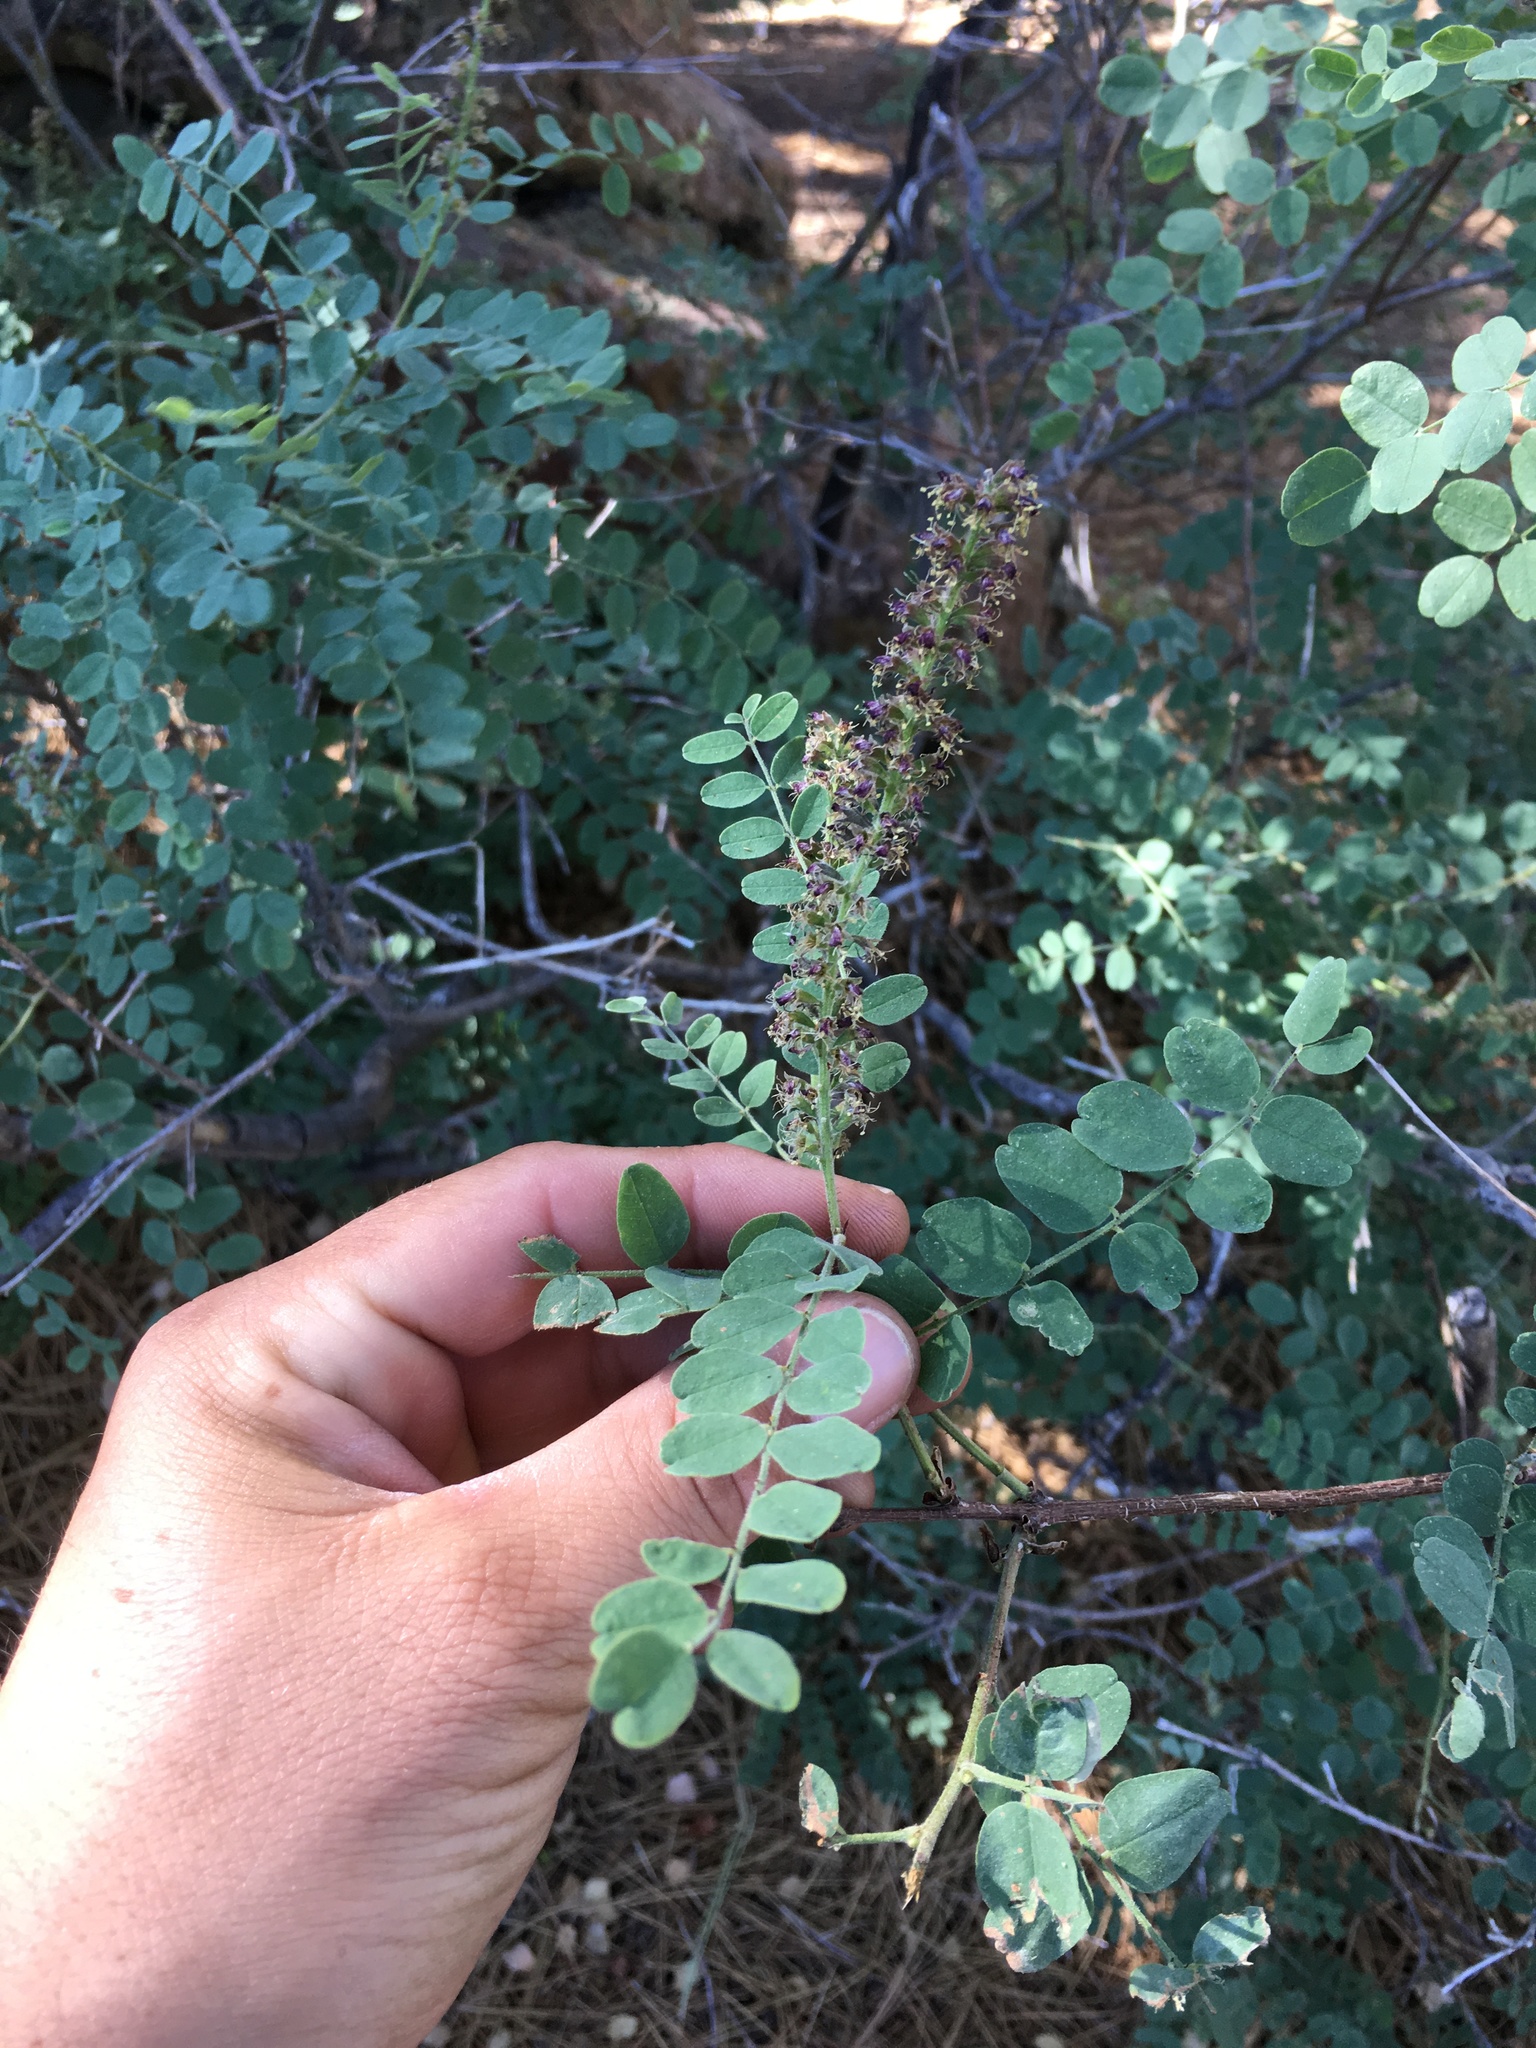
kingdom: Plantae
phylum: Tracheophyta
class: Magnoliopsida
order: Fabales
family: Fabaceae
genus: Amorpha
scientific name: Amorpha californica
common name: California indigobush
